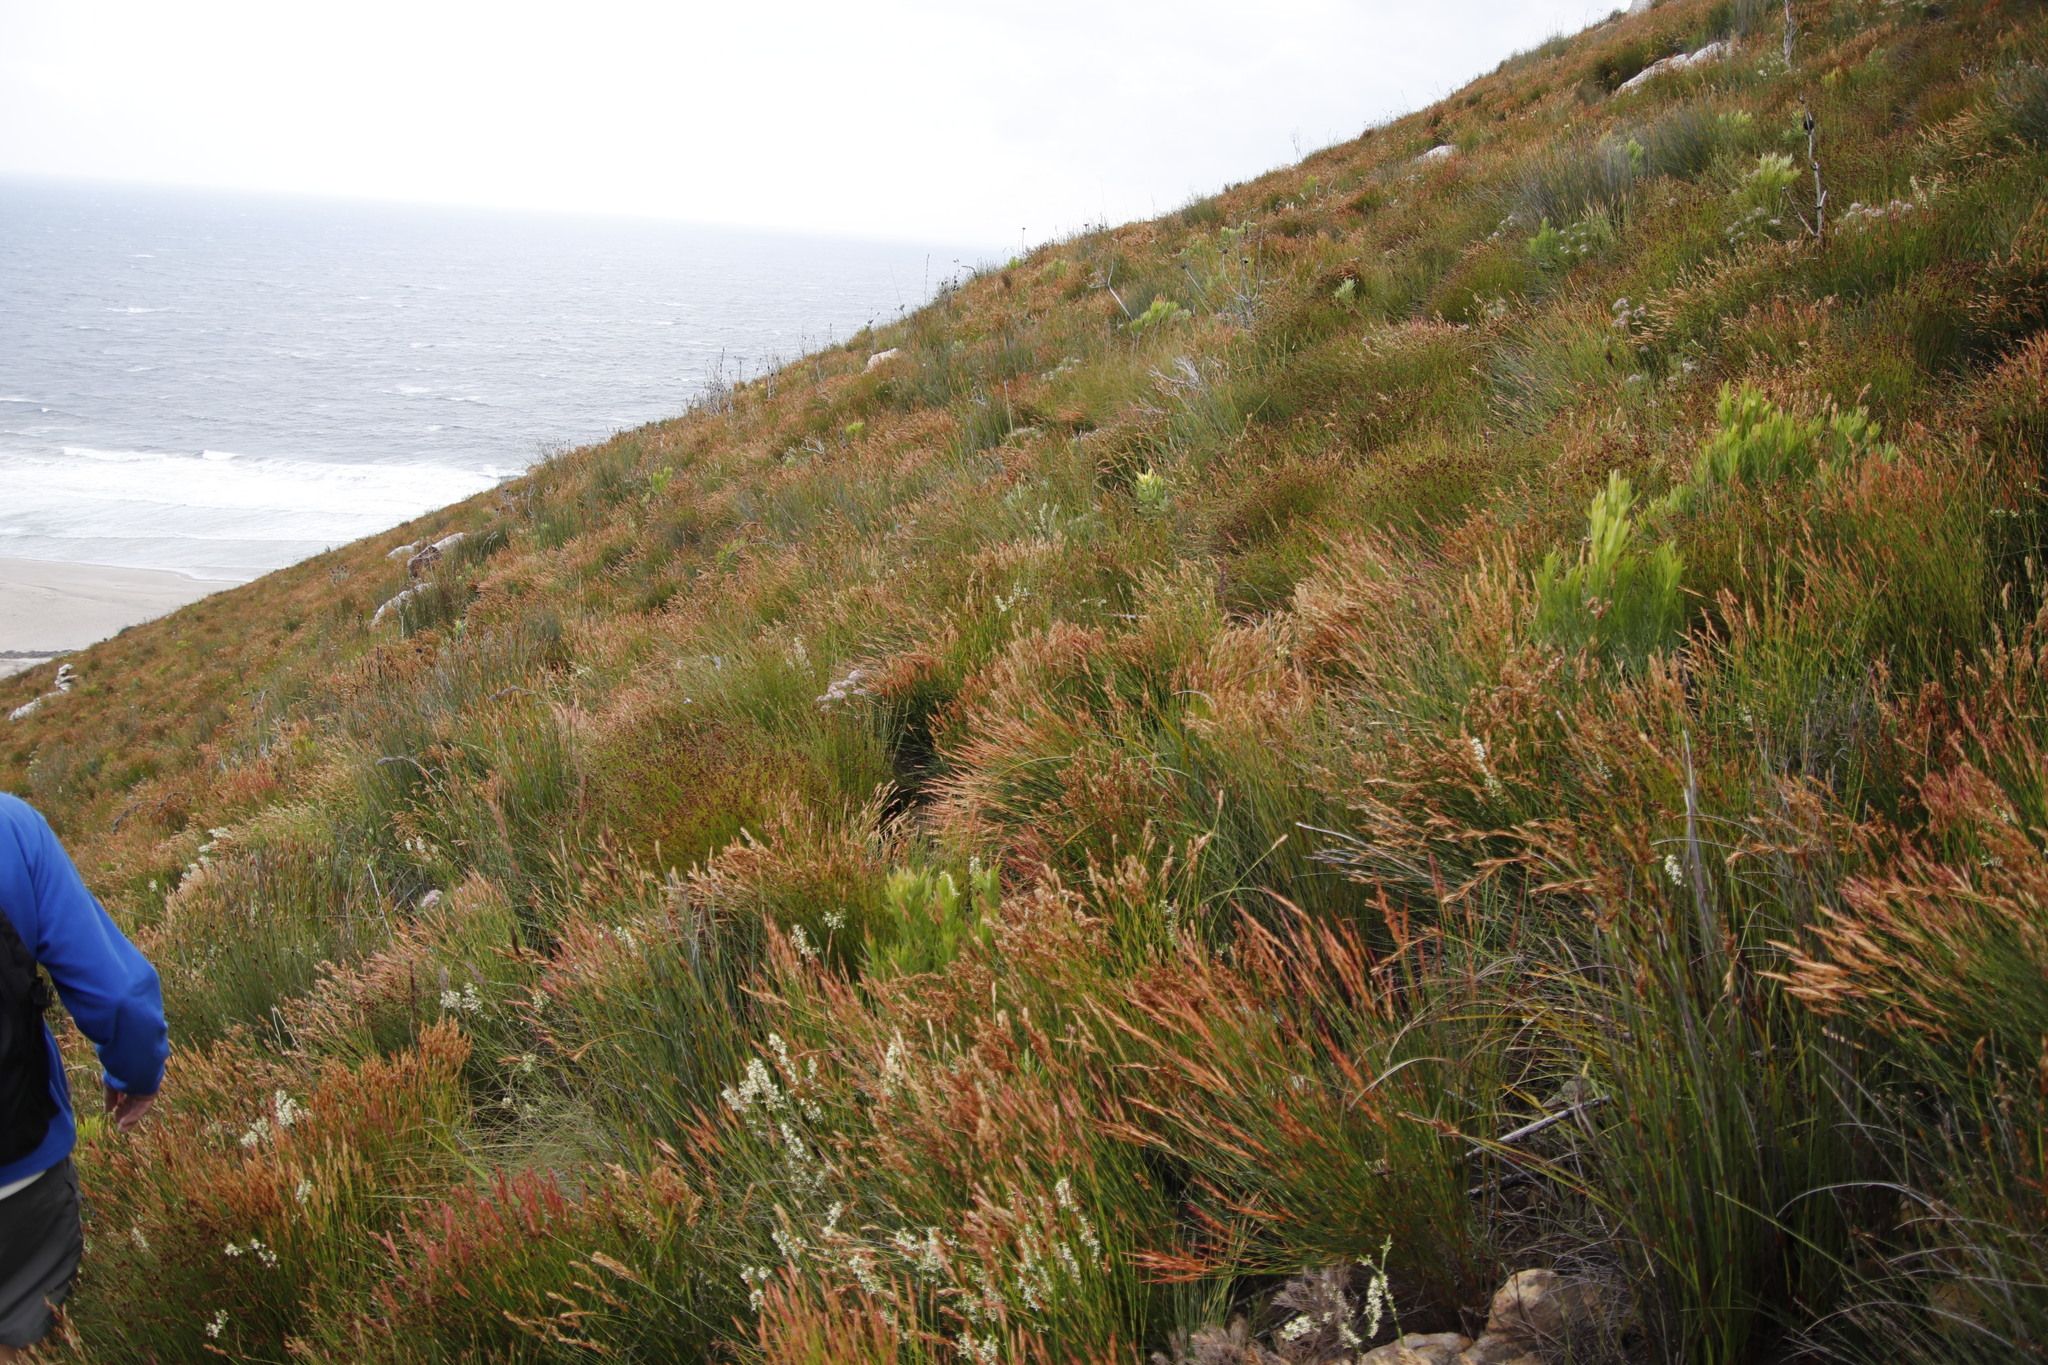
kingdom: Plantae
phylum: Tracheophyta
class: Liliopsida
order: Poales
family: Restionaceae
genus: Elegia
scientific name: Elegia stipularis
